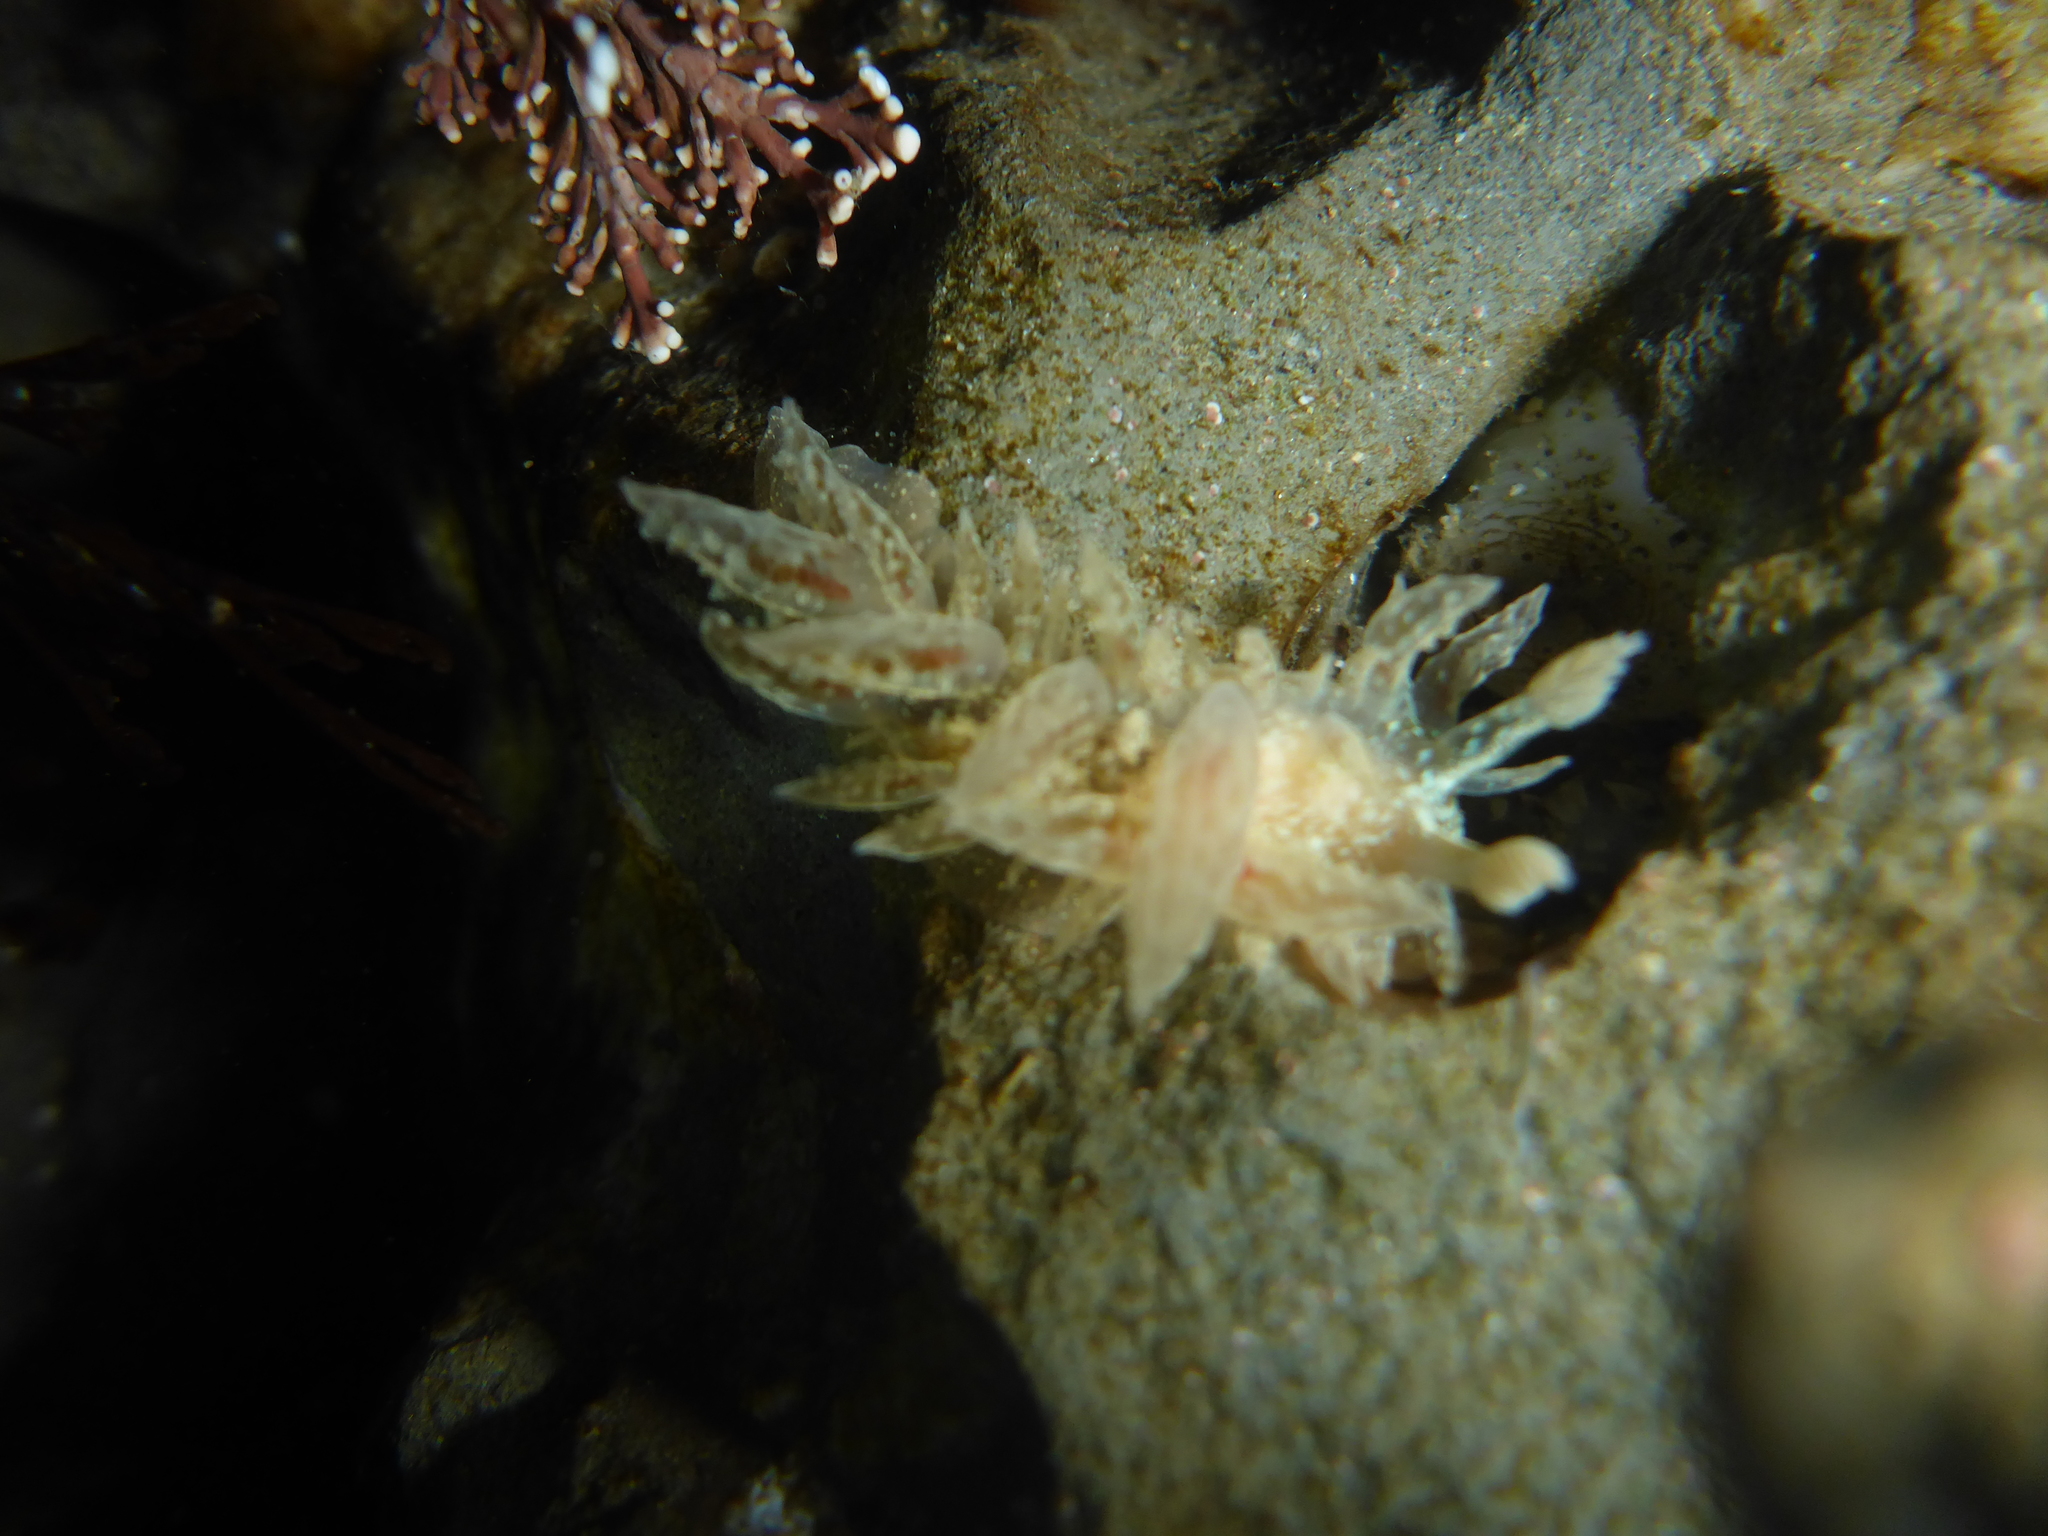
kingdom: Animalia
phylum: Mollusca
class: Gastropoda
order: Nudibranchia
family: Dironidae
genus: Dirona
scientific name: Dirona picta
